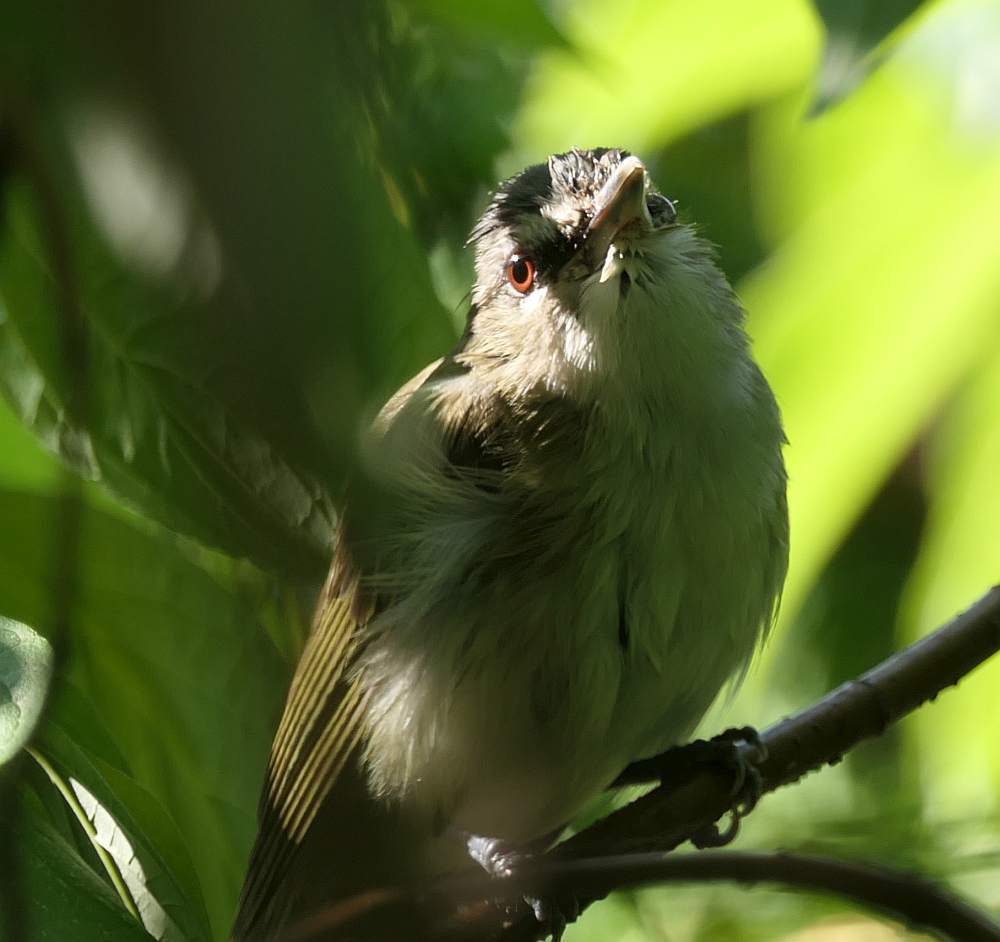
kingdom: Animalia
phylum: Chordata
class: Aves
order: Passeriformes
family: Vireonidae
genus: Vireo
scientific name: Vireo olivaceus
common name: Red-eyed vireo
